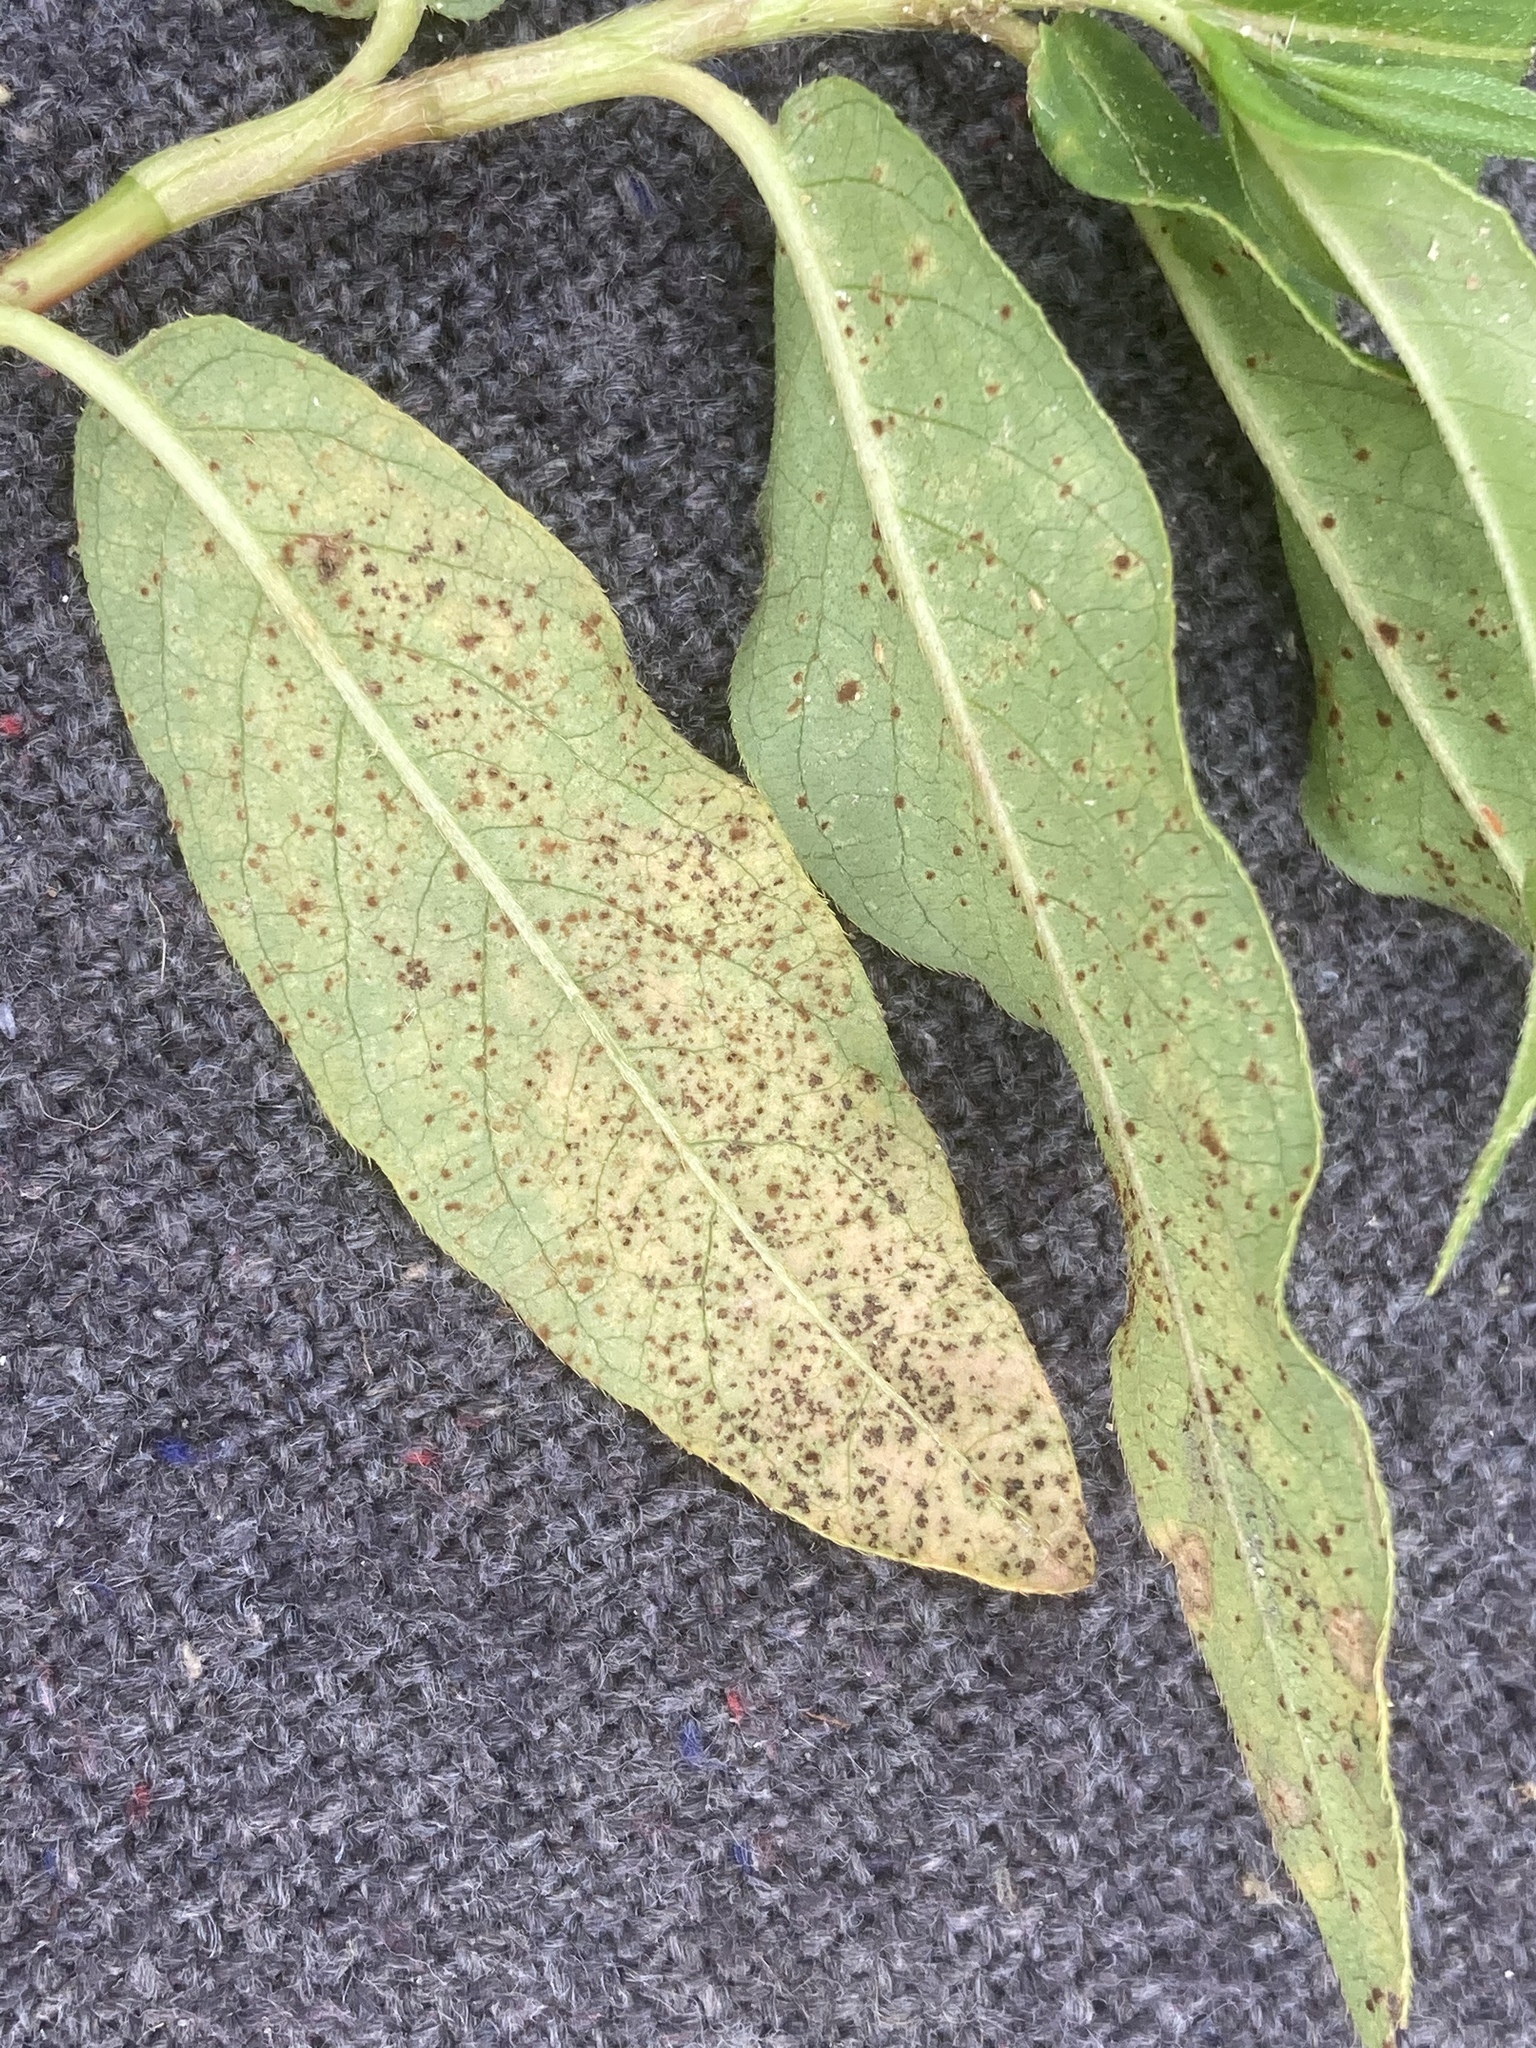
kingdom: Fungi
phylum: Basidiomycota
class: Pucciniomycetes
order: Pucciniales
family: Pucciniaceae
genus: Puccinia
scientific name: Puccinia polygoni-amphibii
